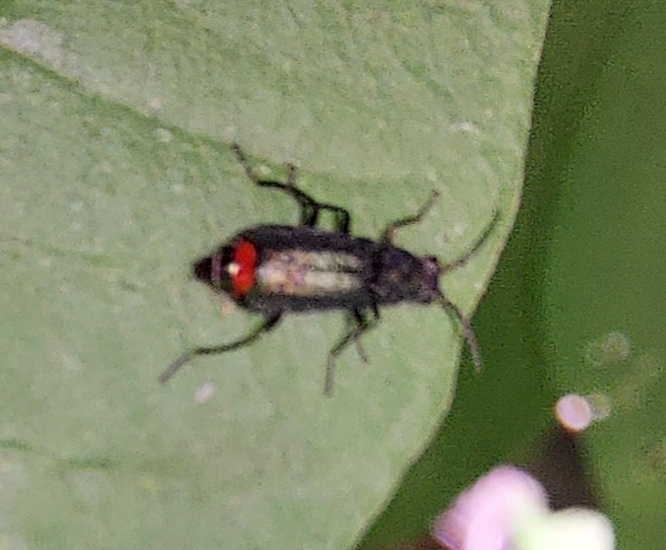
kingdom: Animalia
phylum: Arthropoda
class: Insecta
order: Coleoptera
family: Melyridae
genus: Malachius
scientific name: Malachius bipustulatus
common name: Malachite beetle
